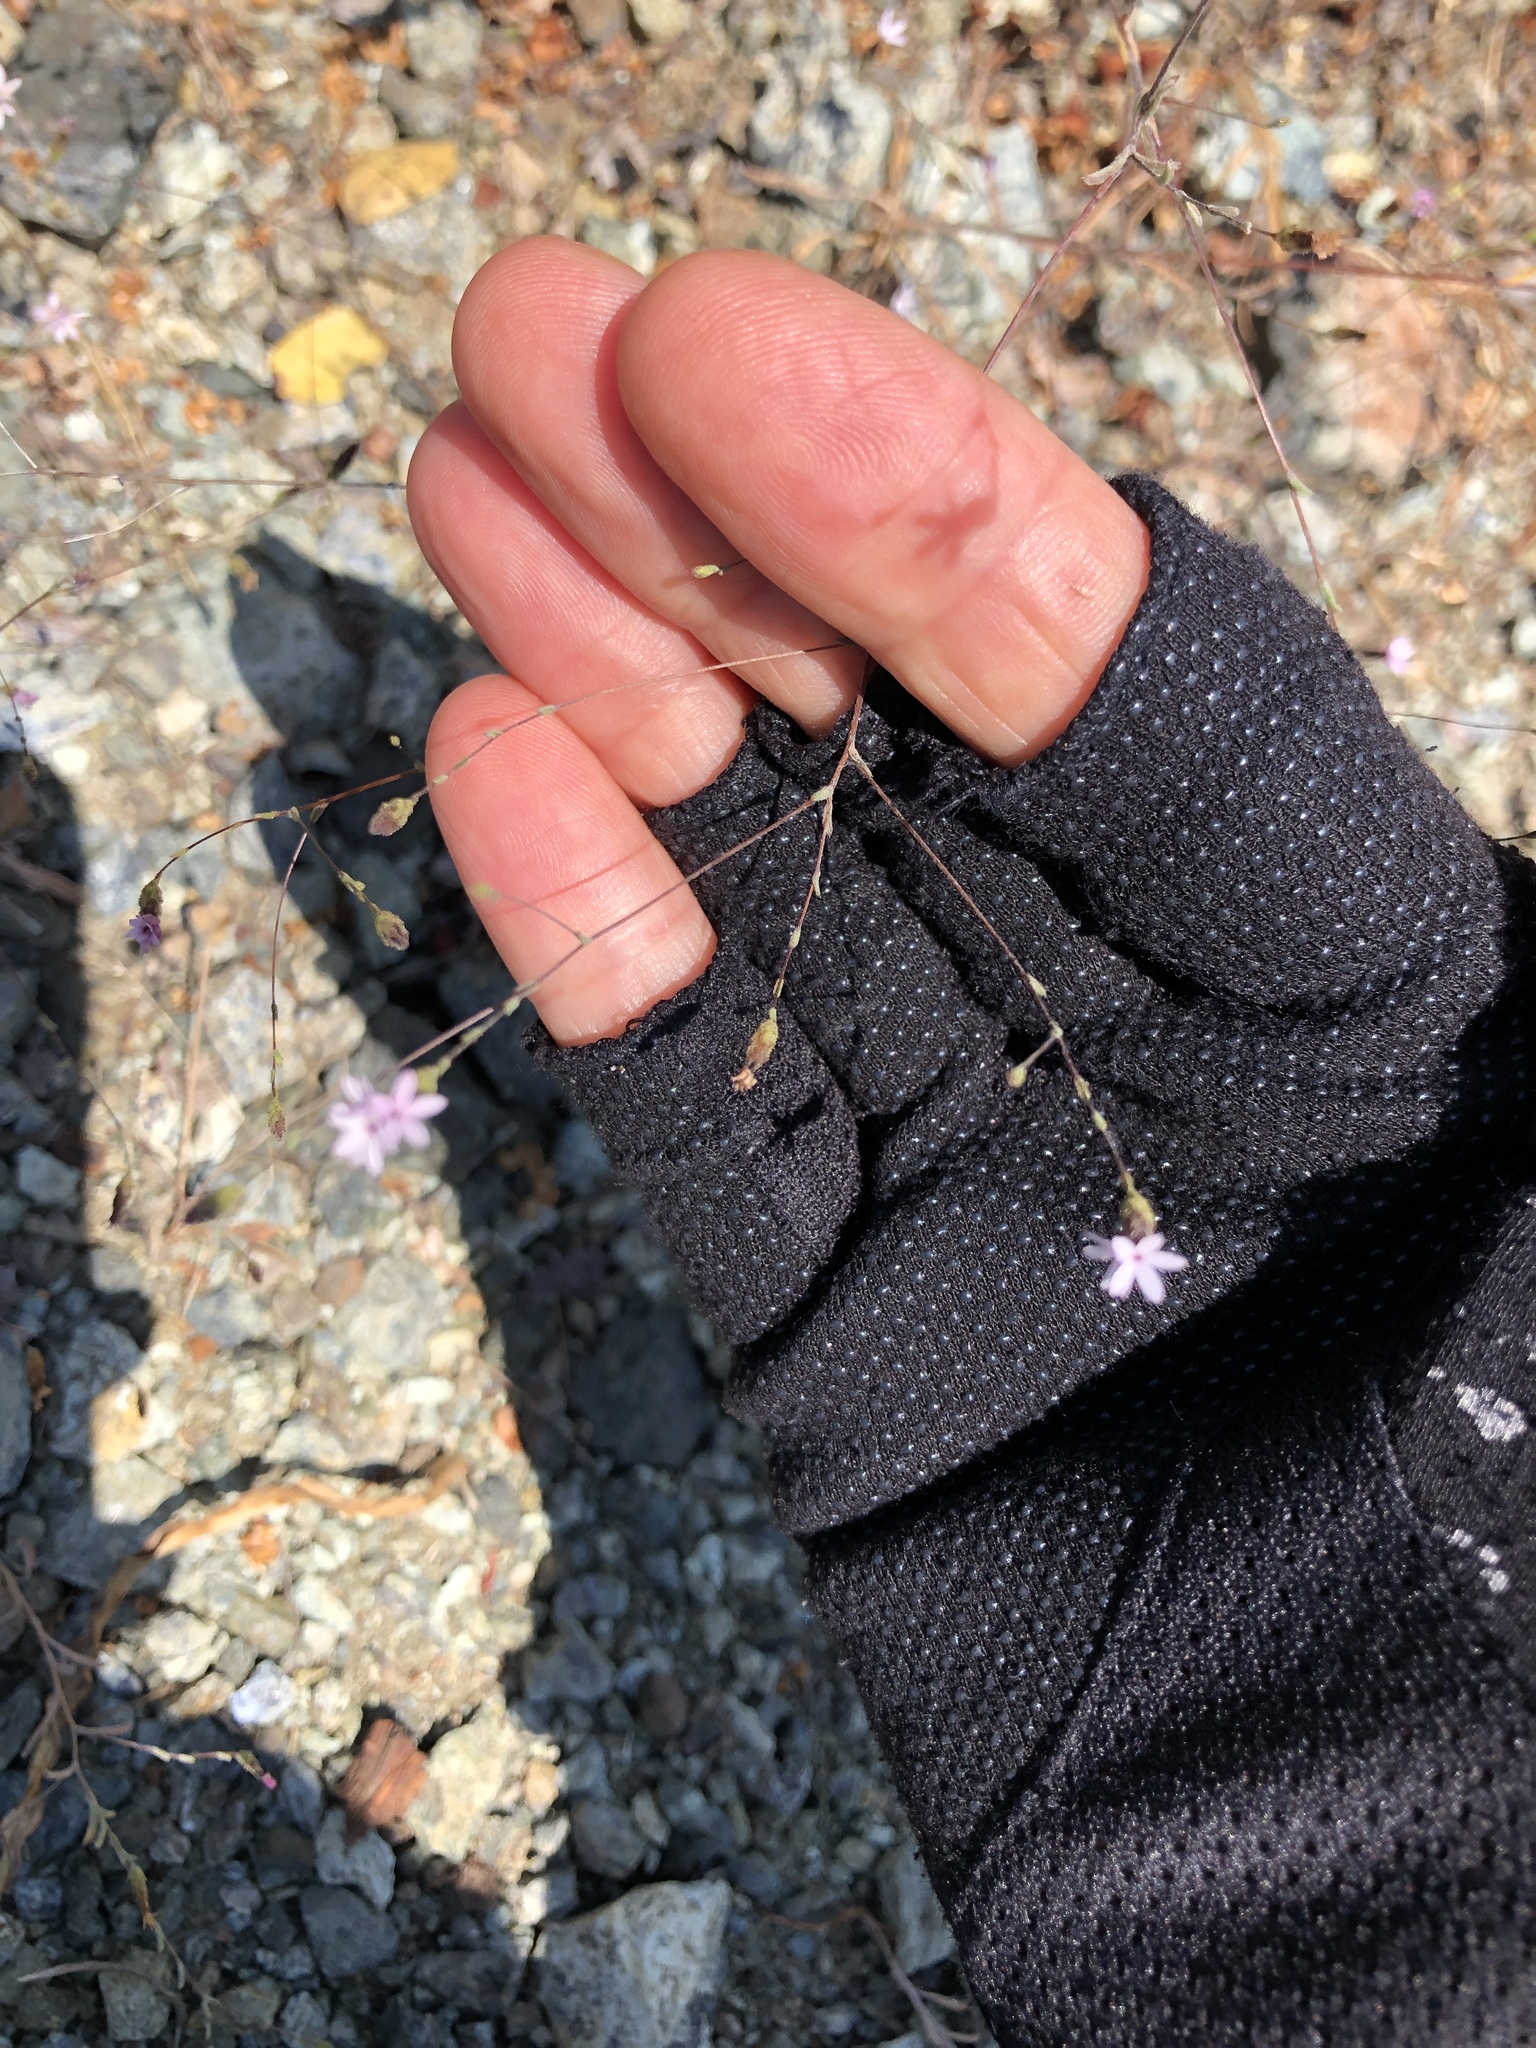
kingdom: Plantae
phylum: Tracheophyta
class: Magnoliopsida
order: Asterales
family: Asteraceae
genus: Lessingia
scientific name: Lessingia micradenia
